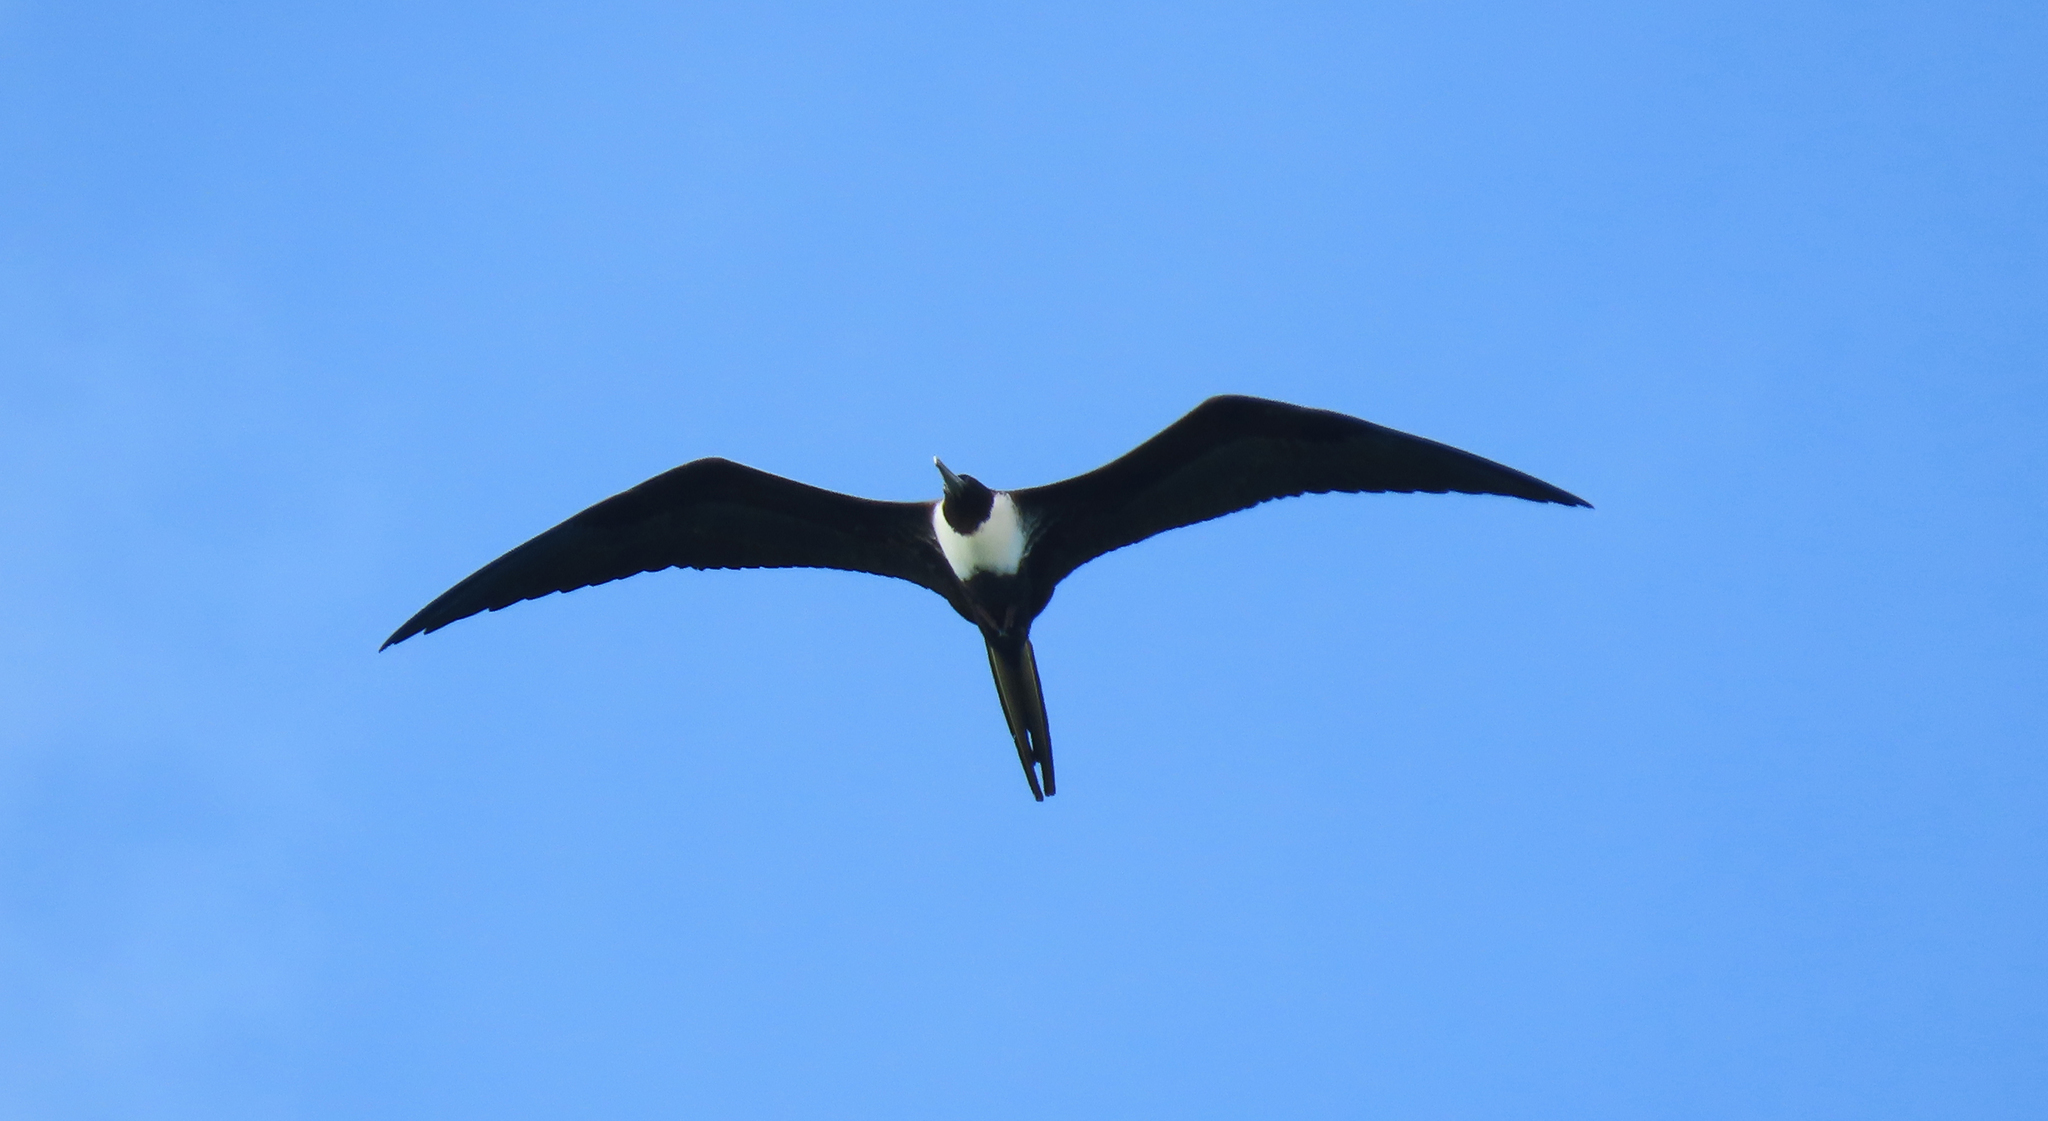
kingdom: Animalia
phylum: Chordata
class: Aves
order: Suliformes
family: Fregatidae
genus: Fregata
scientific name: Fregata magnificens
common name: Magnificent frigatebird
